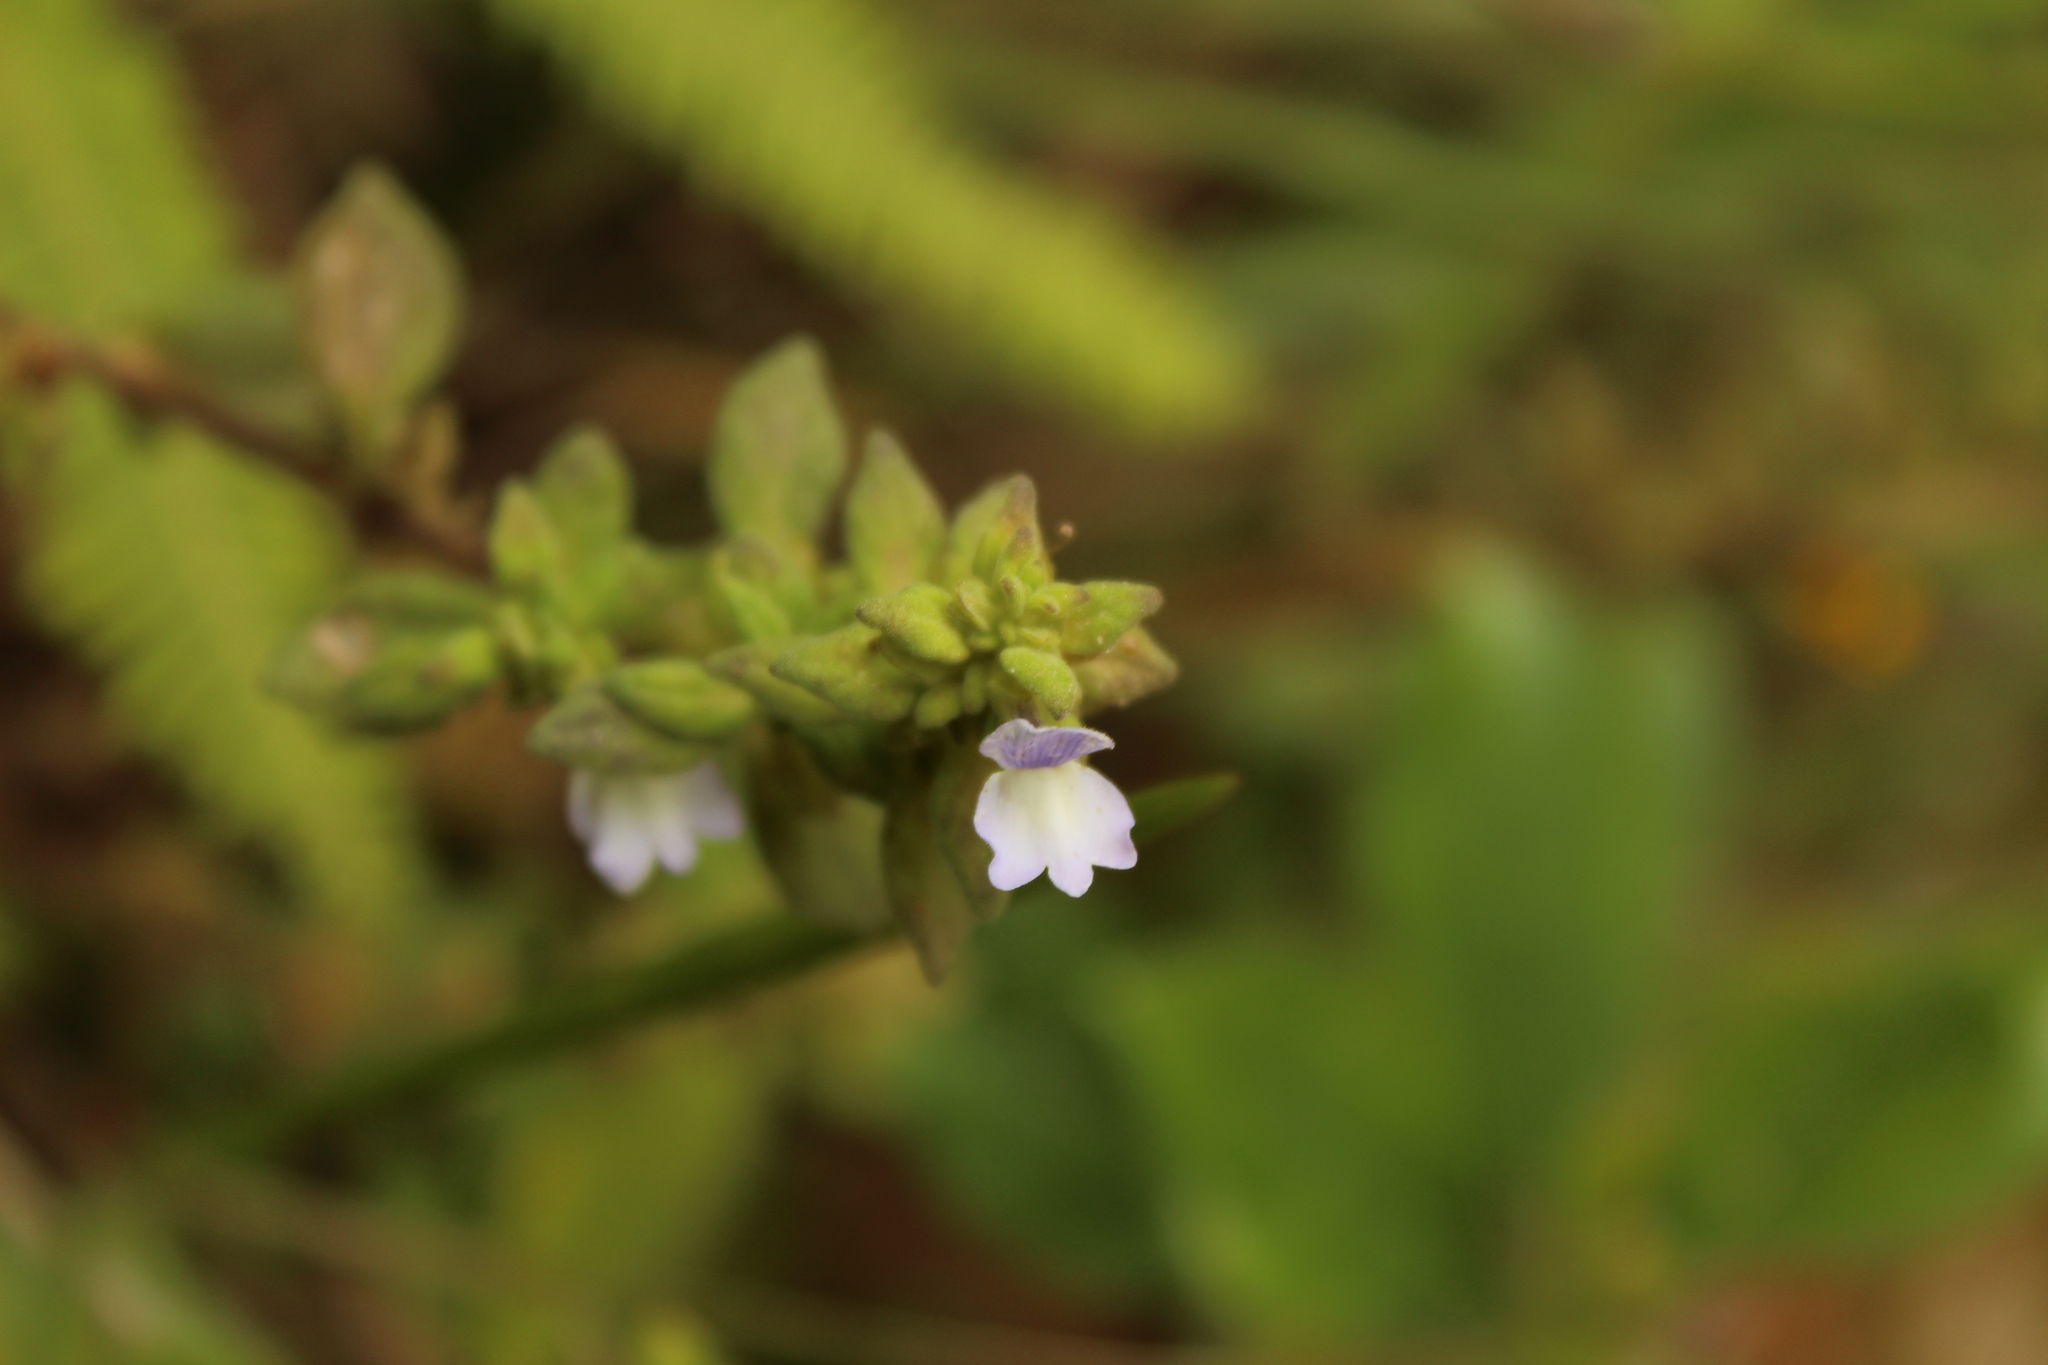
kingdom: Plantae
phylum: Tracheophyta
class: Magnoliopsida
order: Lamiales
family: Plantaginaceae
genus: Matourea
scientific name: Matourea erecta
